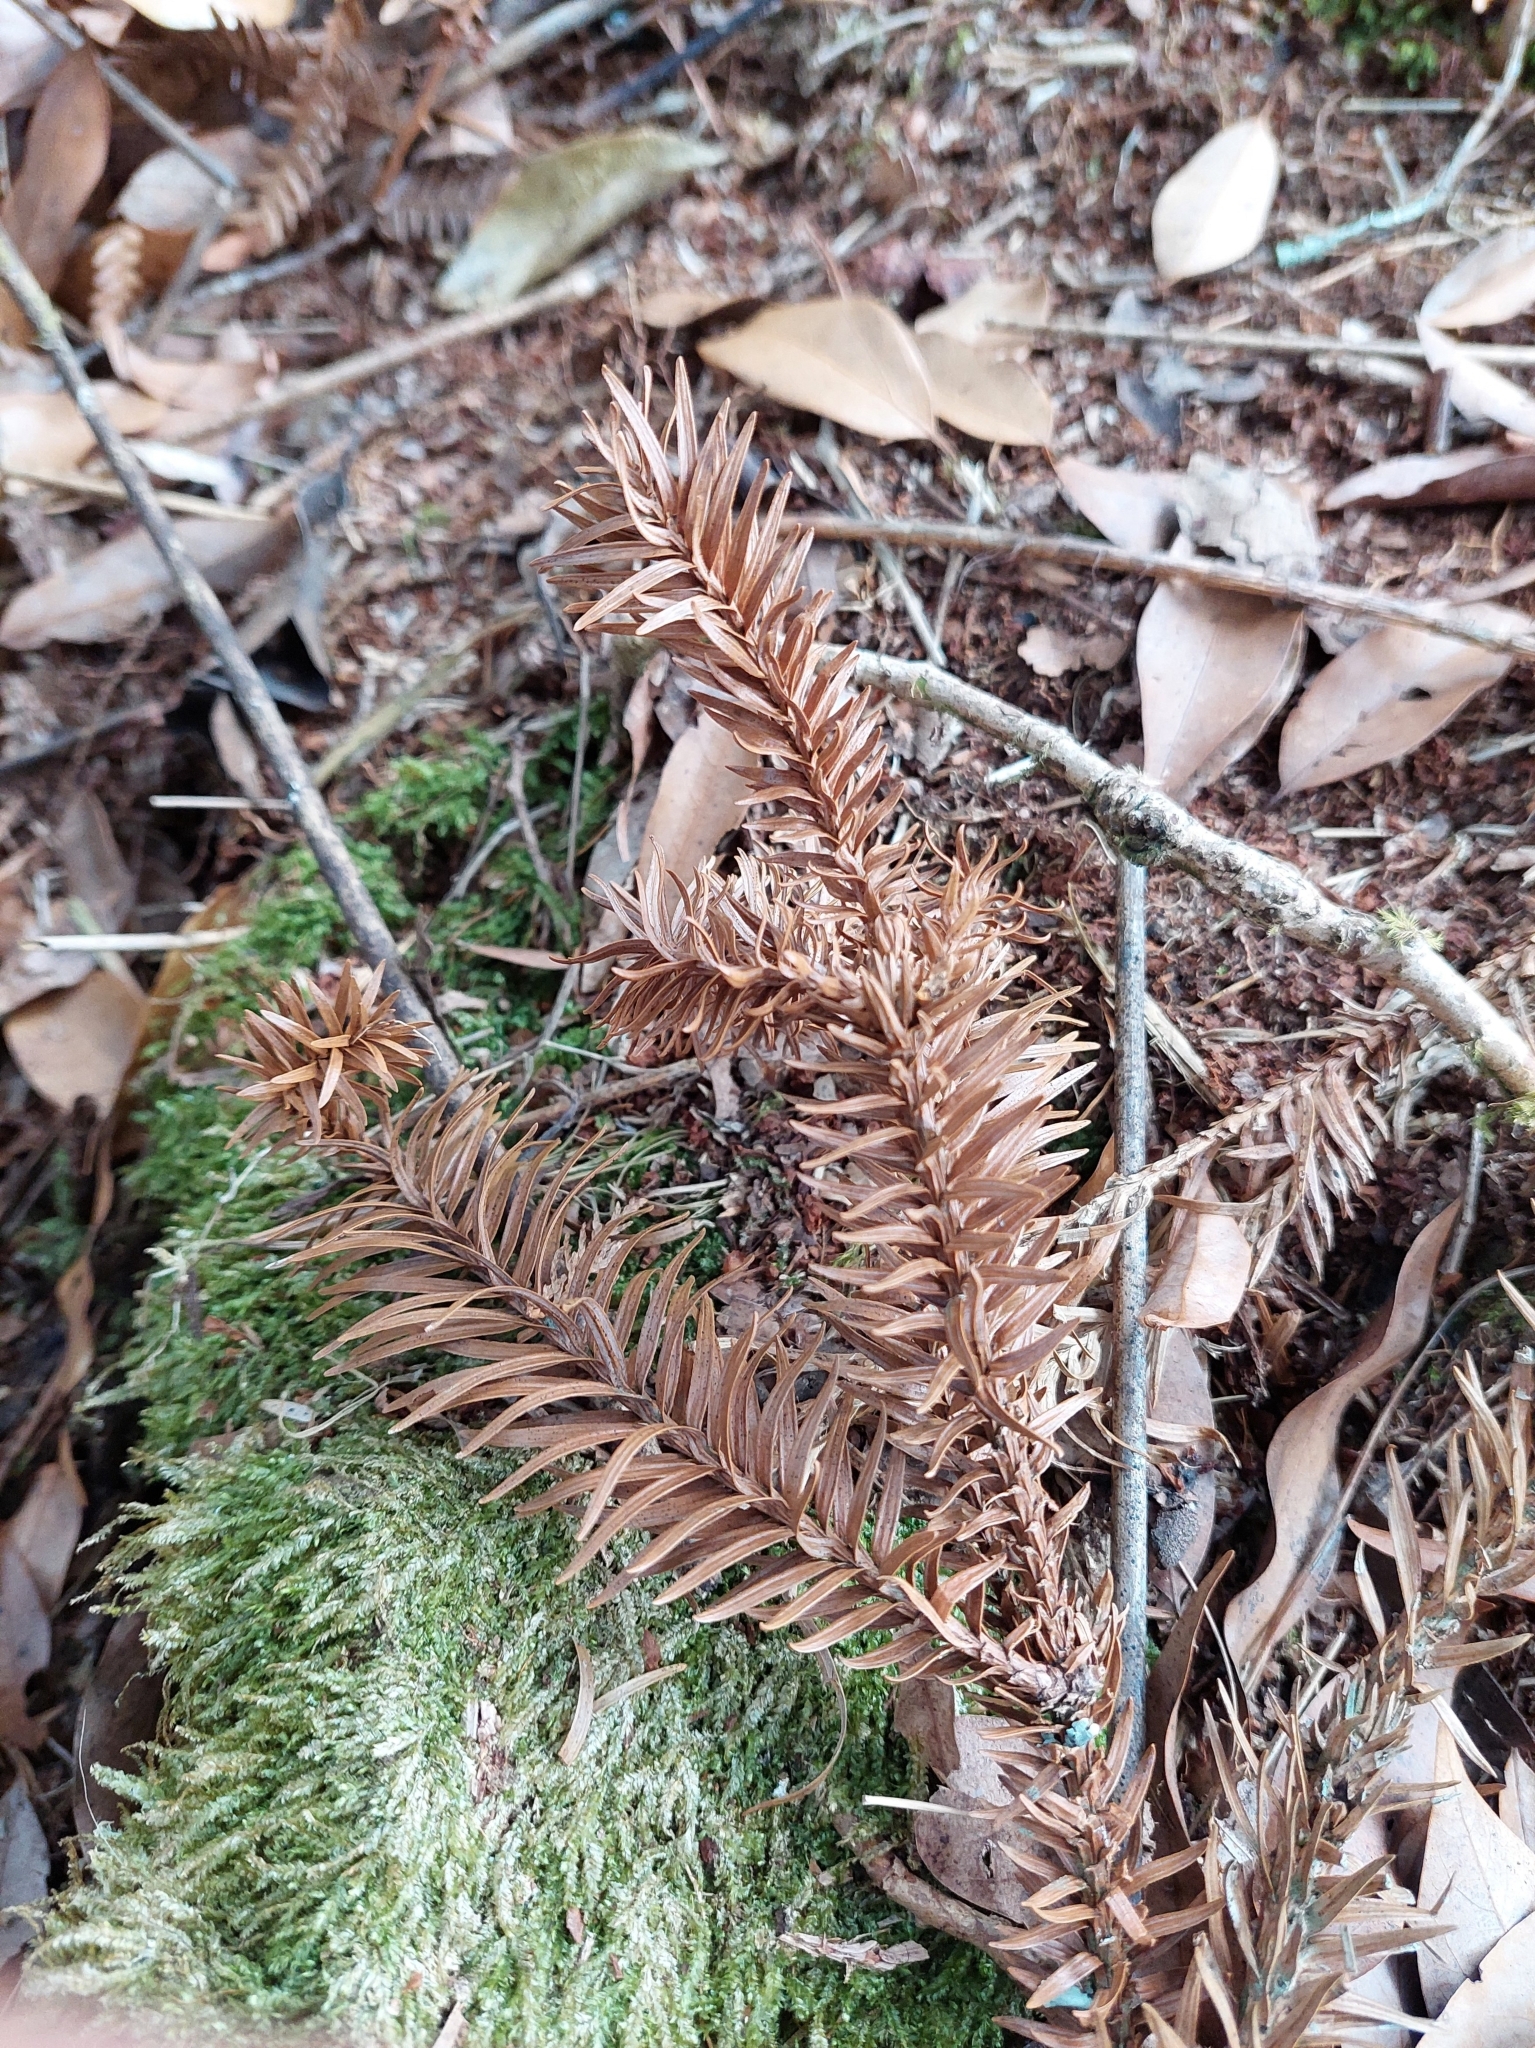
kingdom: Plantae
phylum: Tracheophyta
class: Pinopsida
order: Pinales
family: Cupressaceae
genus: Cunninghamia
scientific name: Cunninghamia konishii
